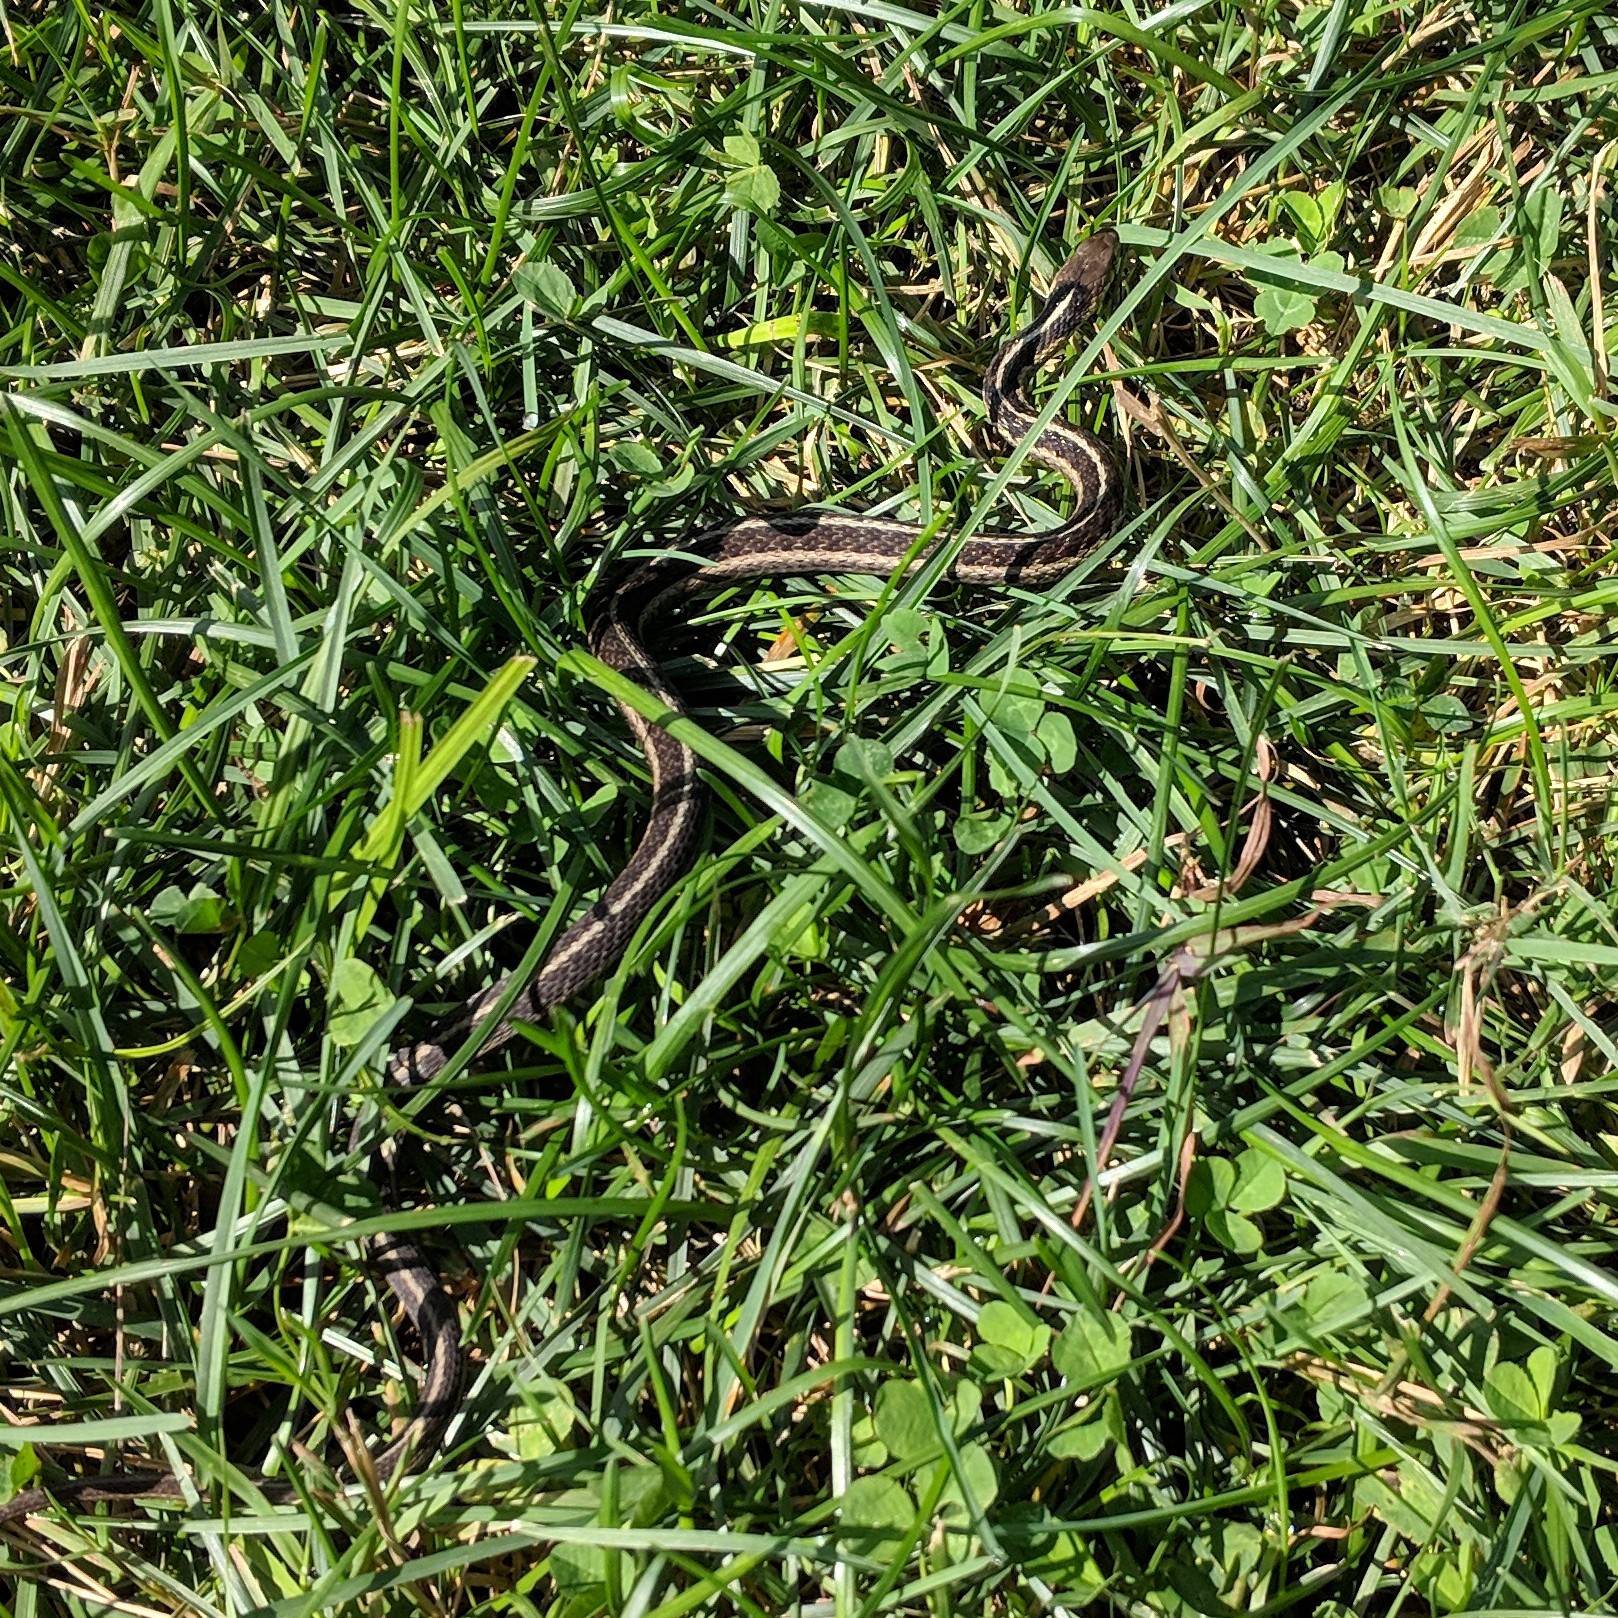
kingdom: Animalia
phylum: Chordata
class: Squamata
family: Colubridae
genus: Thamnophis
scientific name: Thamnophis sirtalis
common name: Common garter snake
